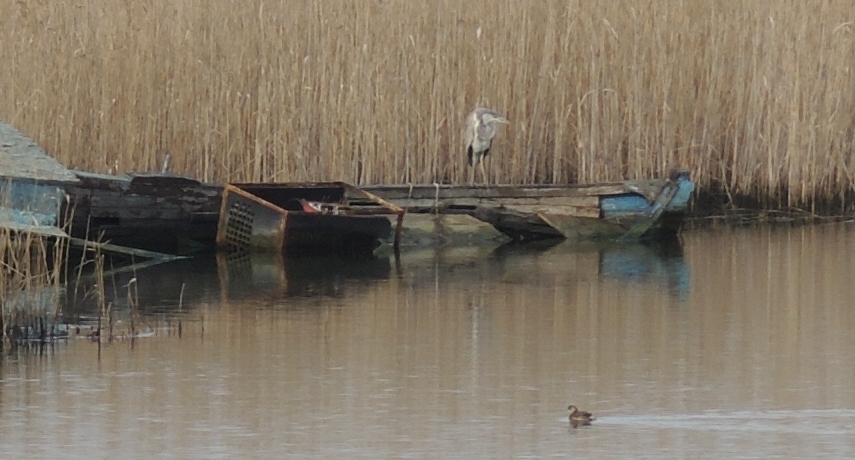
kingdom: Animalia
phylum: Chordata
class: Aves
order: Pelecaniformes
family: Ardeidae
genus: Ardea
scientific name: Ardea cinerea
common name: Grey heron
